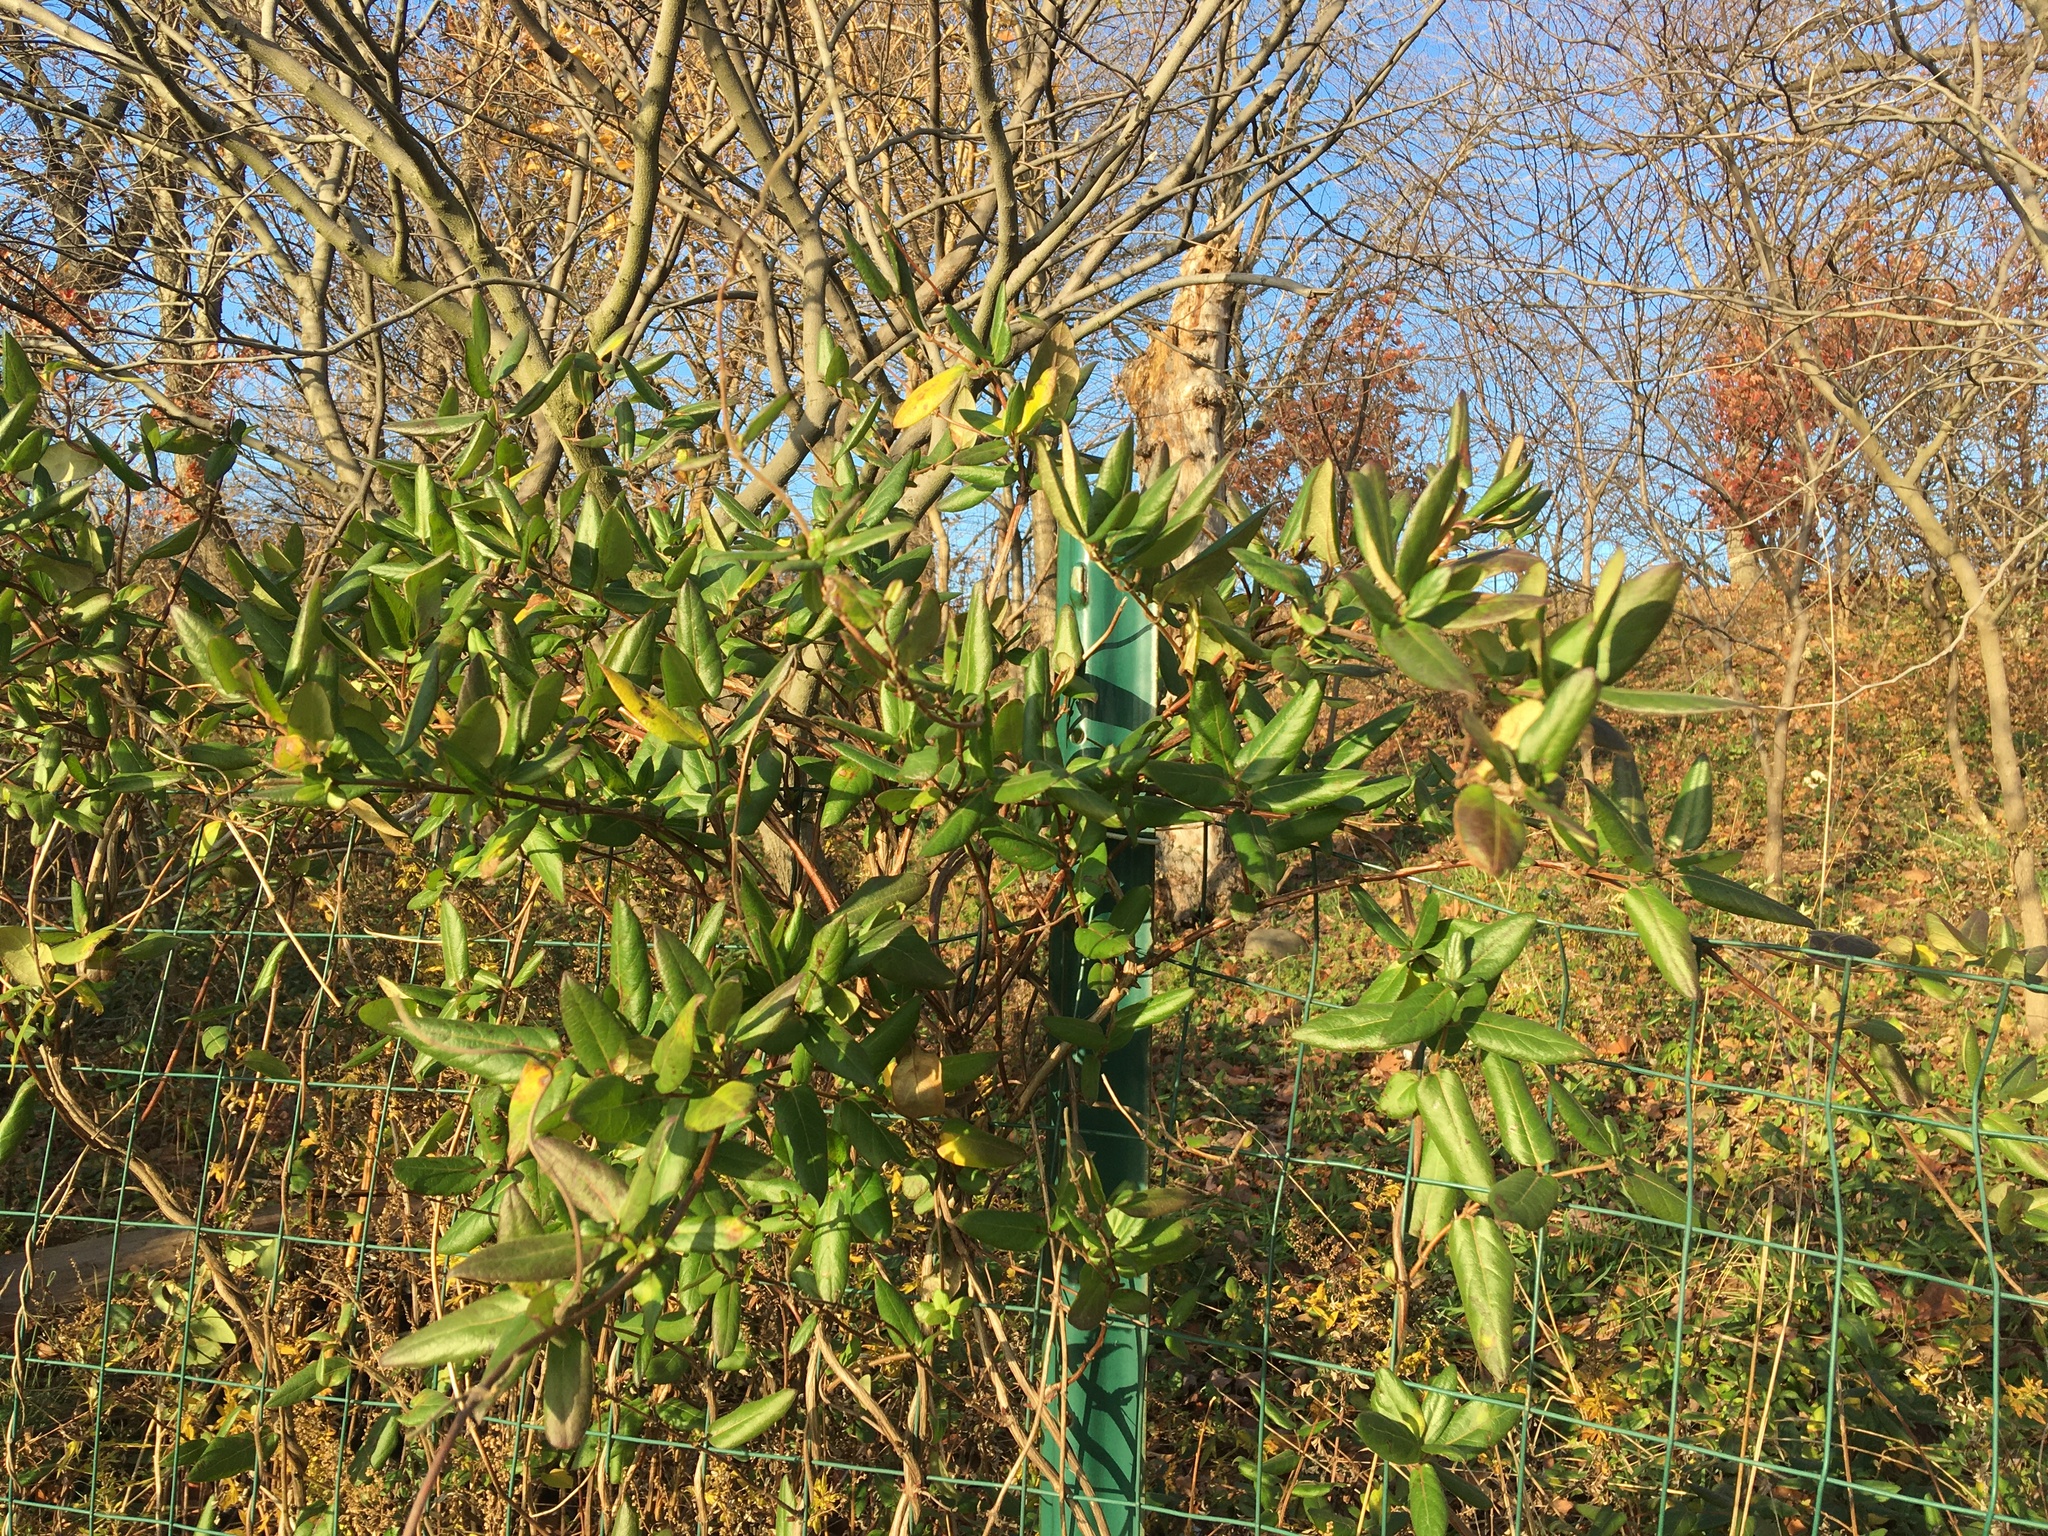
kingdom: Plantae
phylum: Tracheophyta
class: Magnoliopsida
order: Dipsacales
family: Caprifoliaceae
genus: Lonicera
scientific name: Lonicera japonica
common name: Japanese honeysuckle
